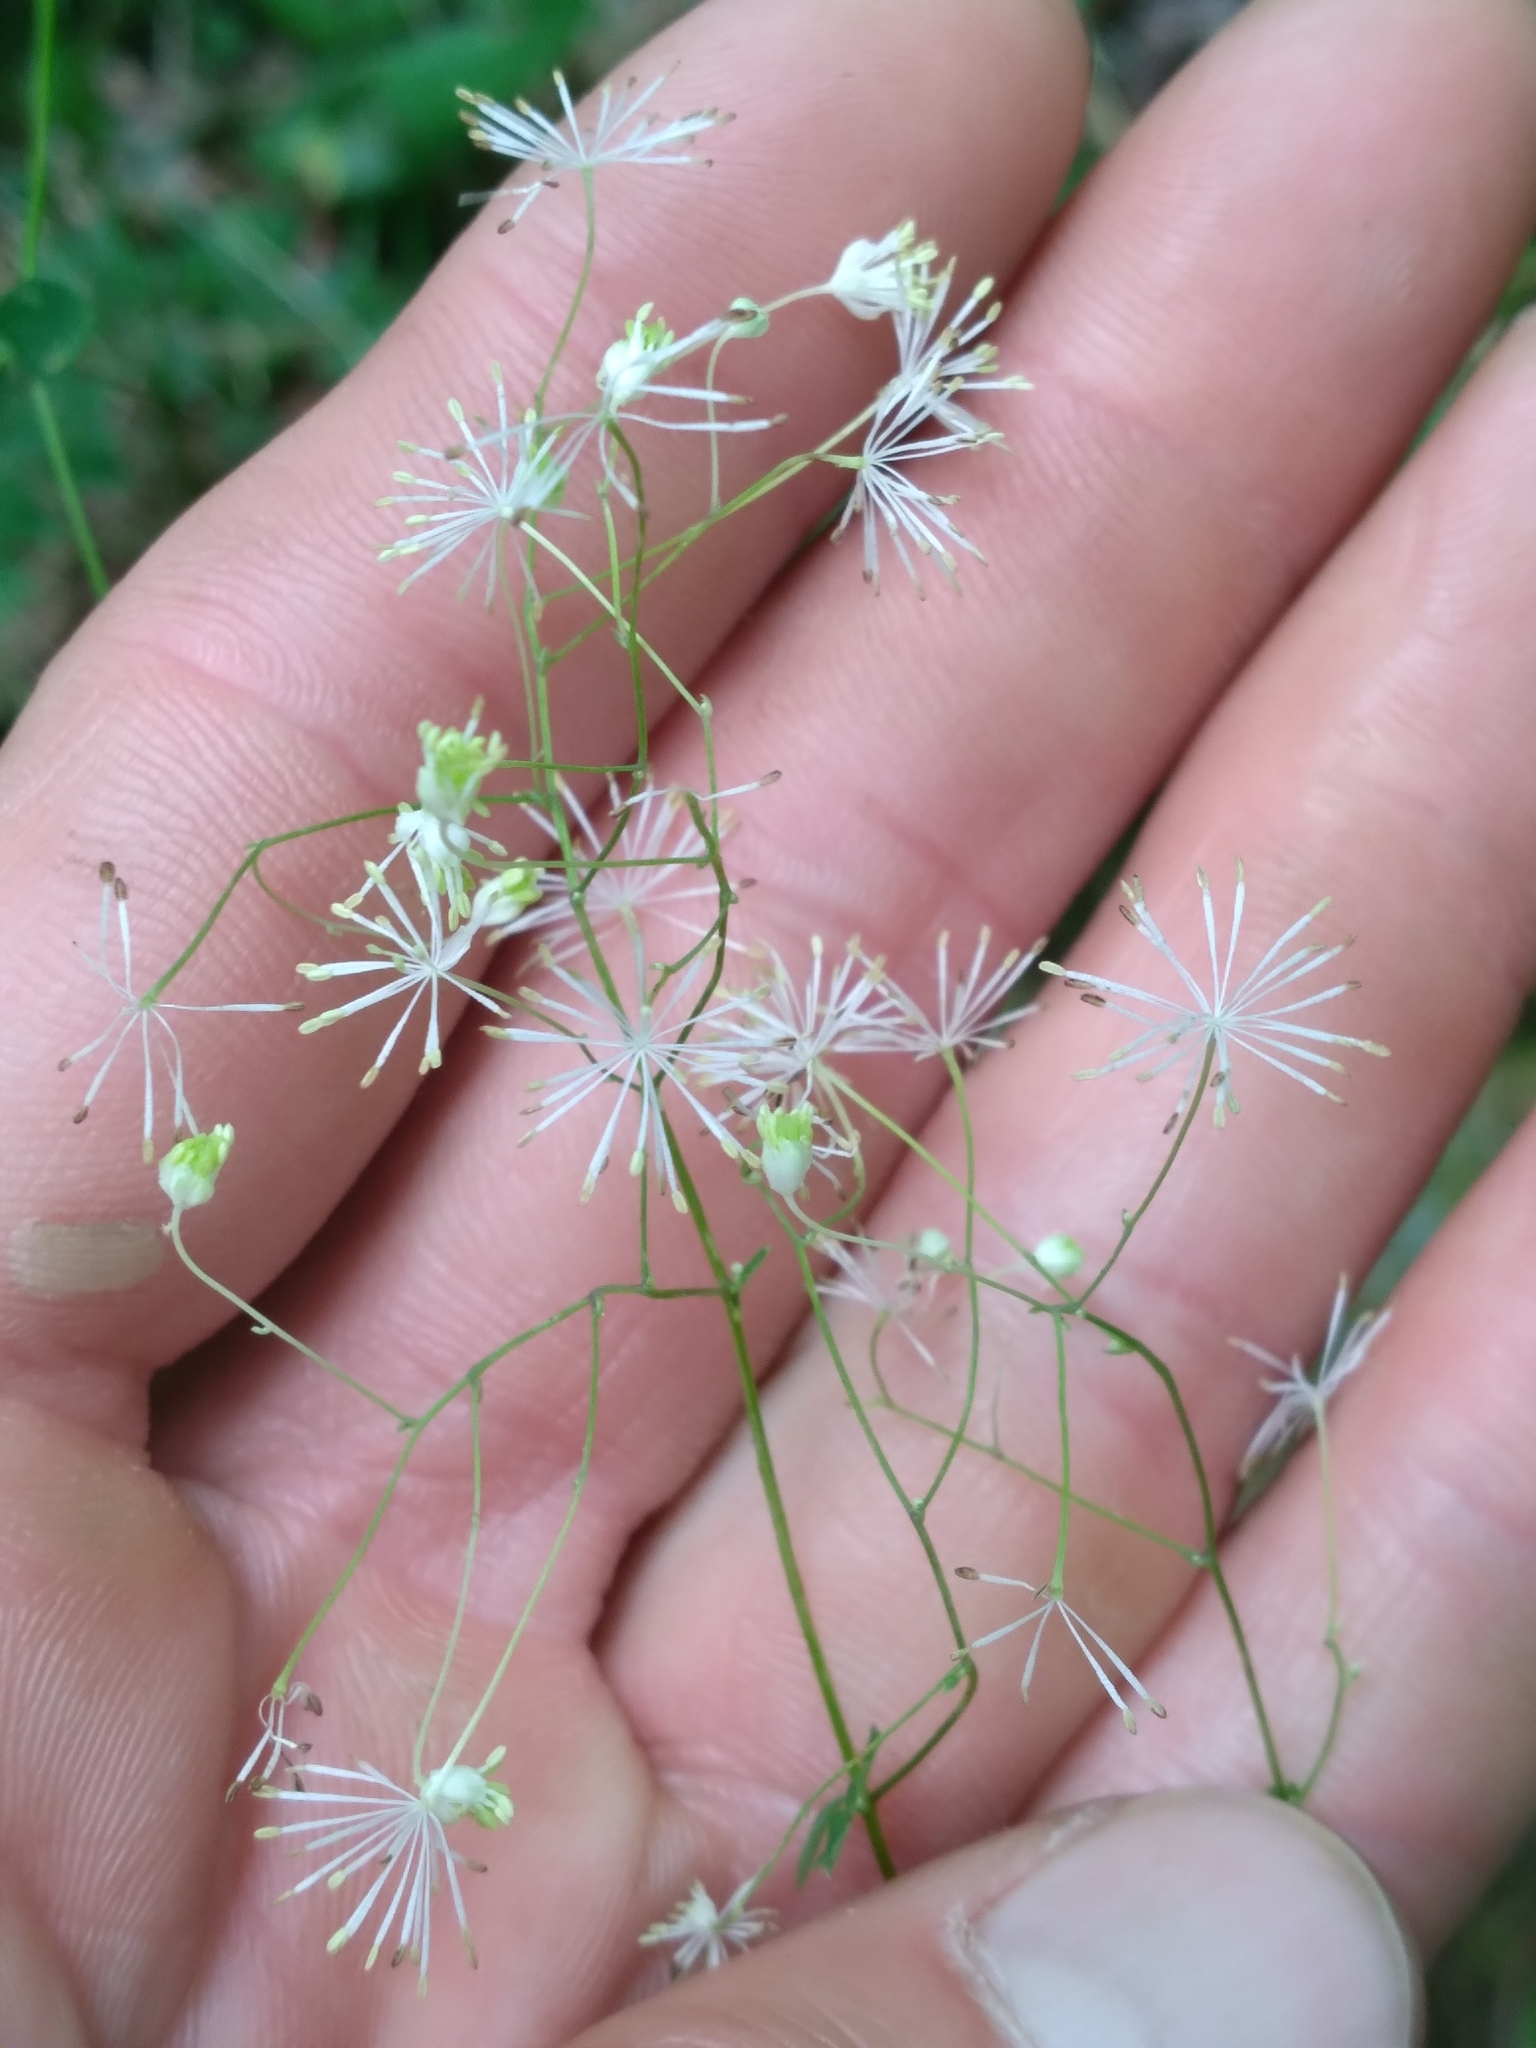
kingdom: Plantae
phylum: Tracheophyta
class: Magnoliopsida
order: Ranunculales
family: Ranunculaceae
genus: Thalictrum
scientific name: Thalictrum macrostylum
